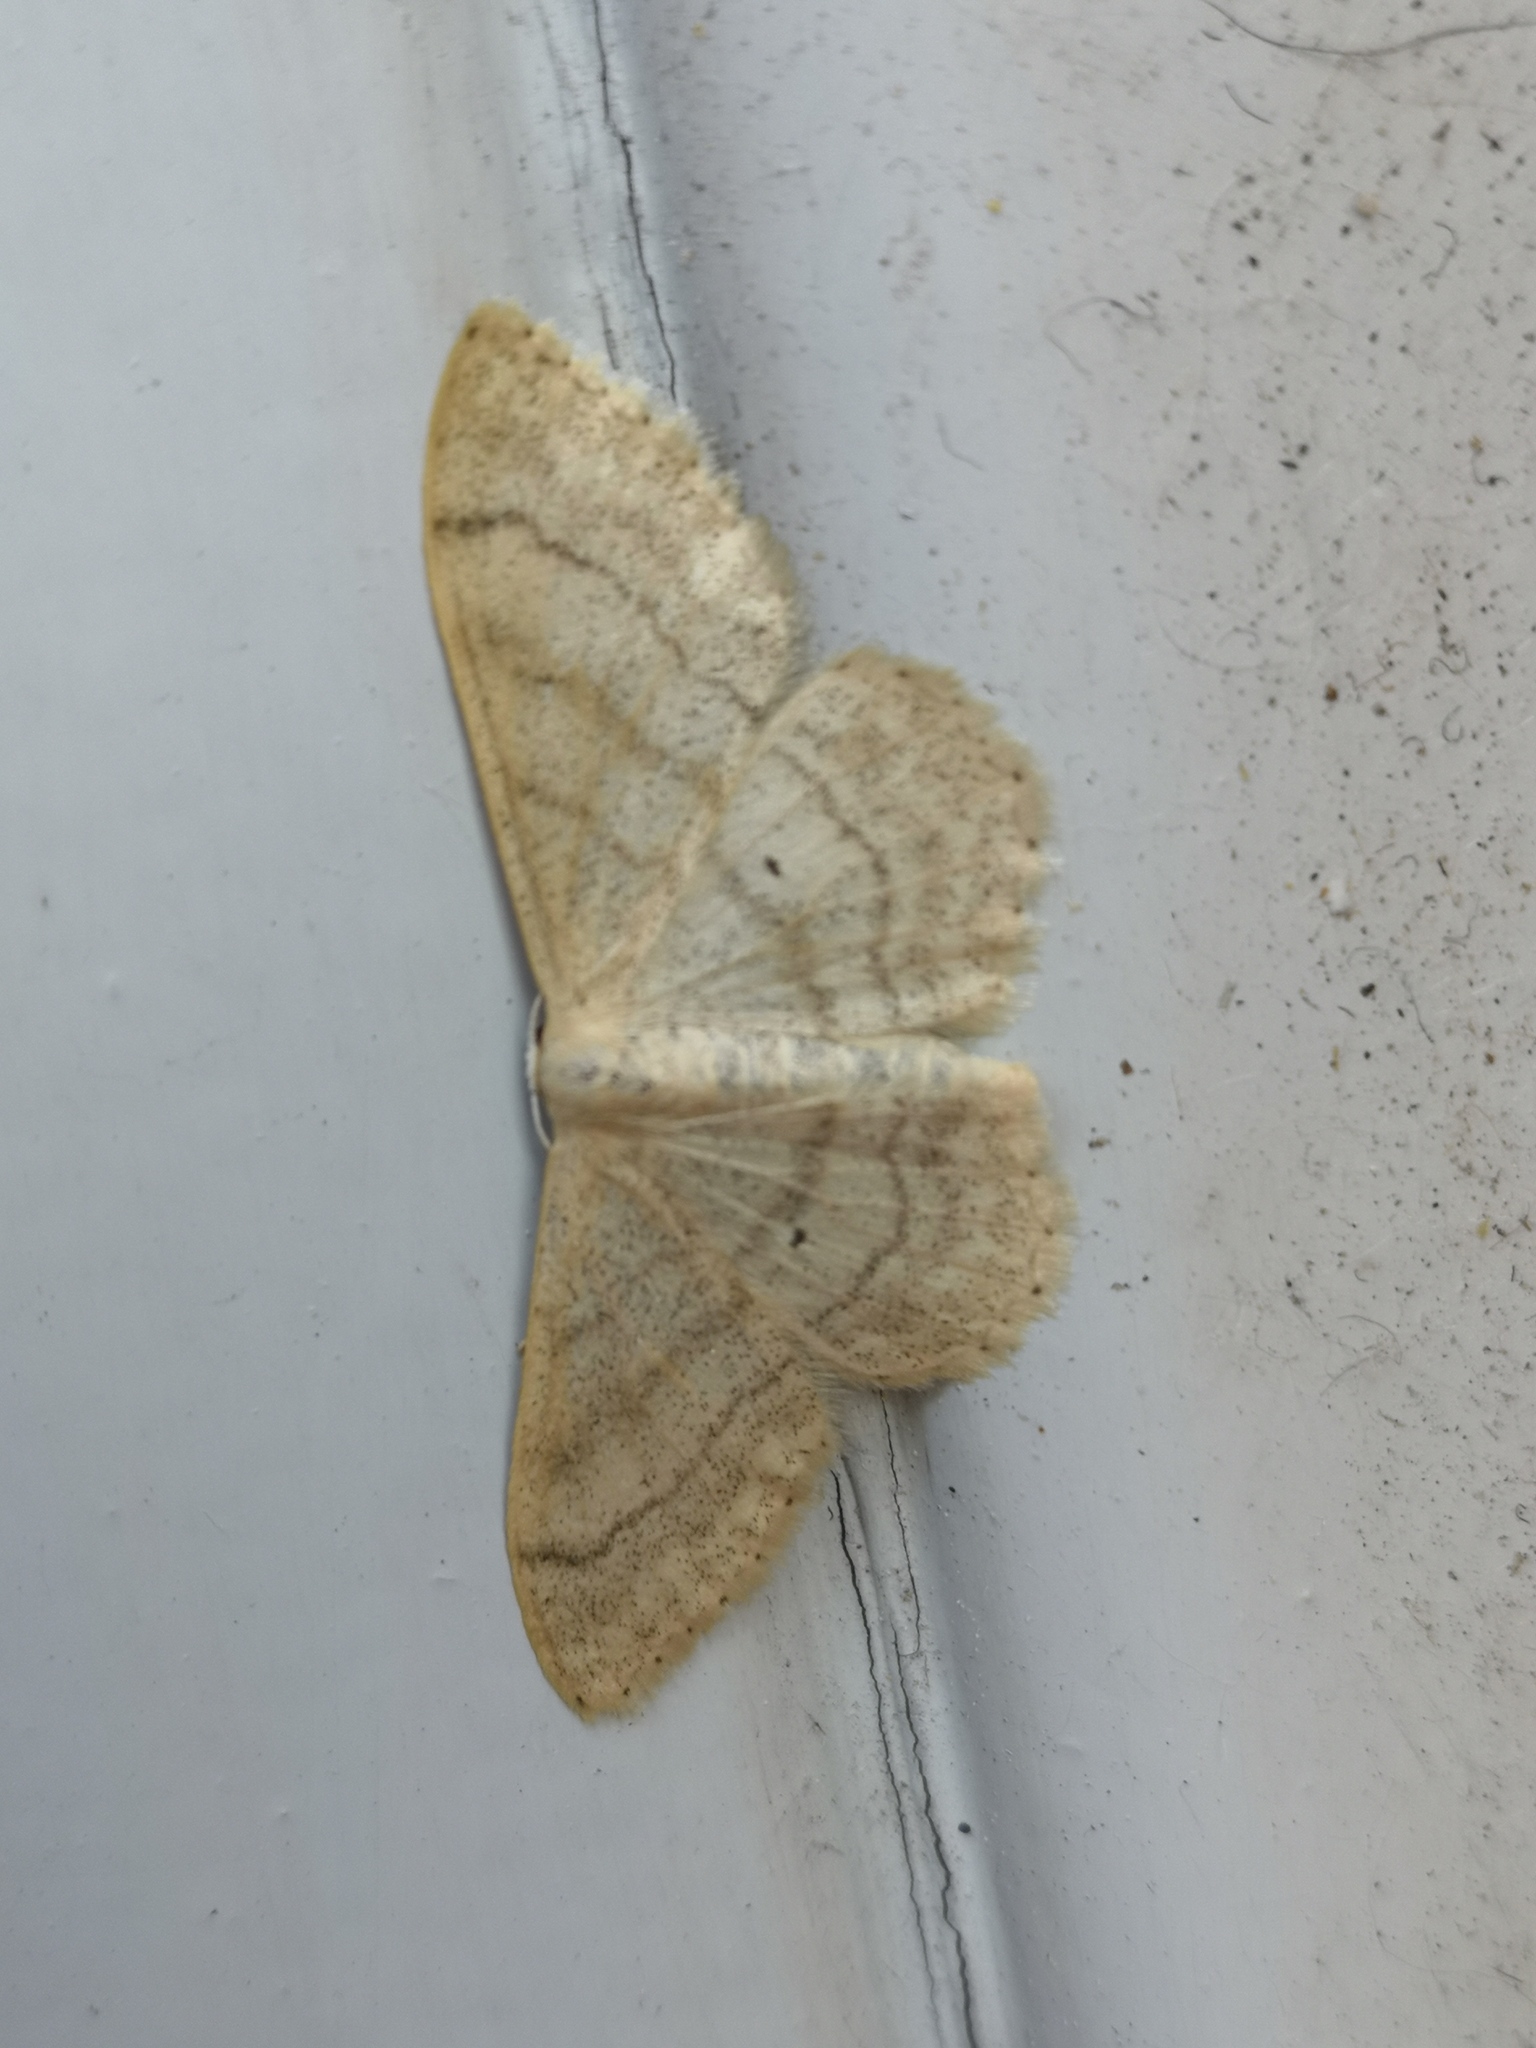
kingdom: Animalia
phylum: Arthropoda
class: Insecta
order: Lepidoptera
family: Geometridae
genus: Idaea
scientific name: Idaea maritimaria
